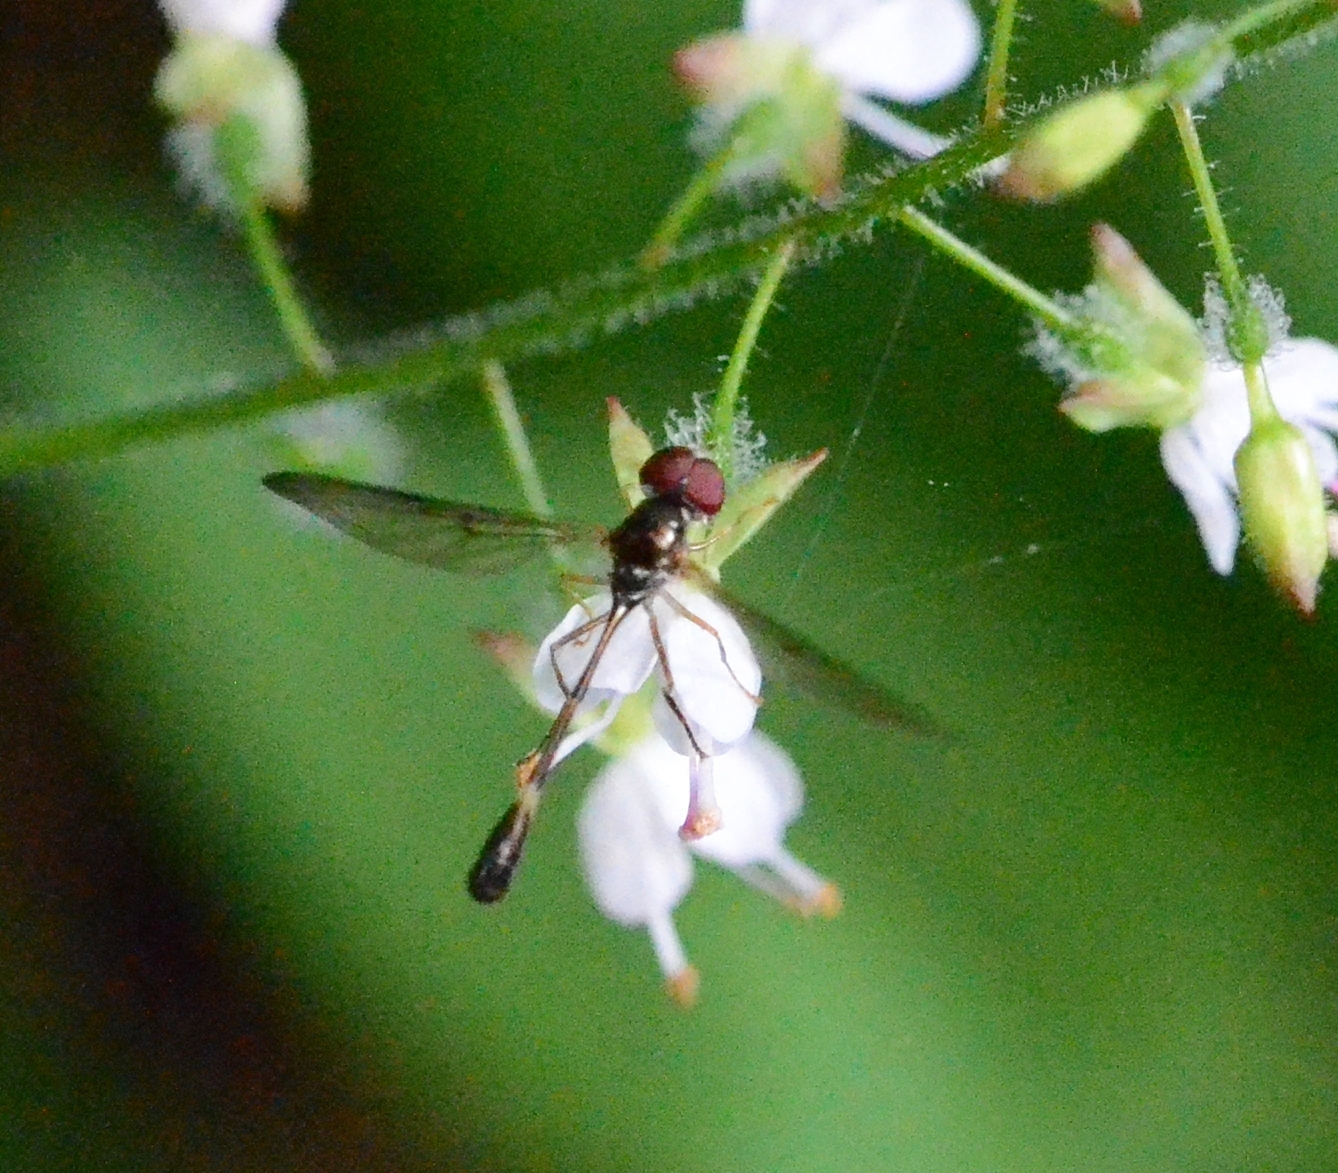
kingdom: Animalia
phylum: Arthropoda
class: Insecta
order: Diptera
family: Syrphidae
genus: Baccha
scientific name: Baccha elongata
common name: Common dainty
